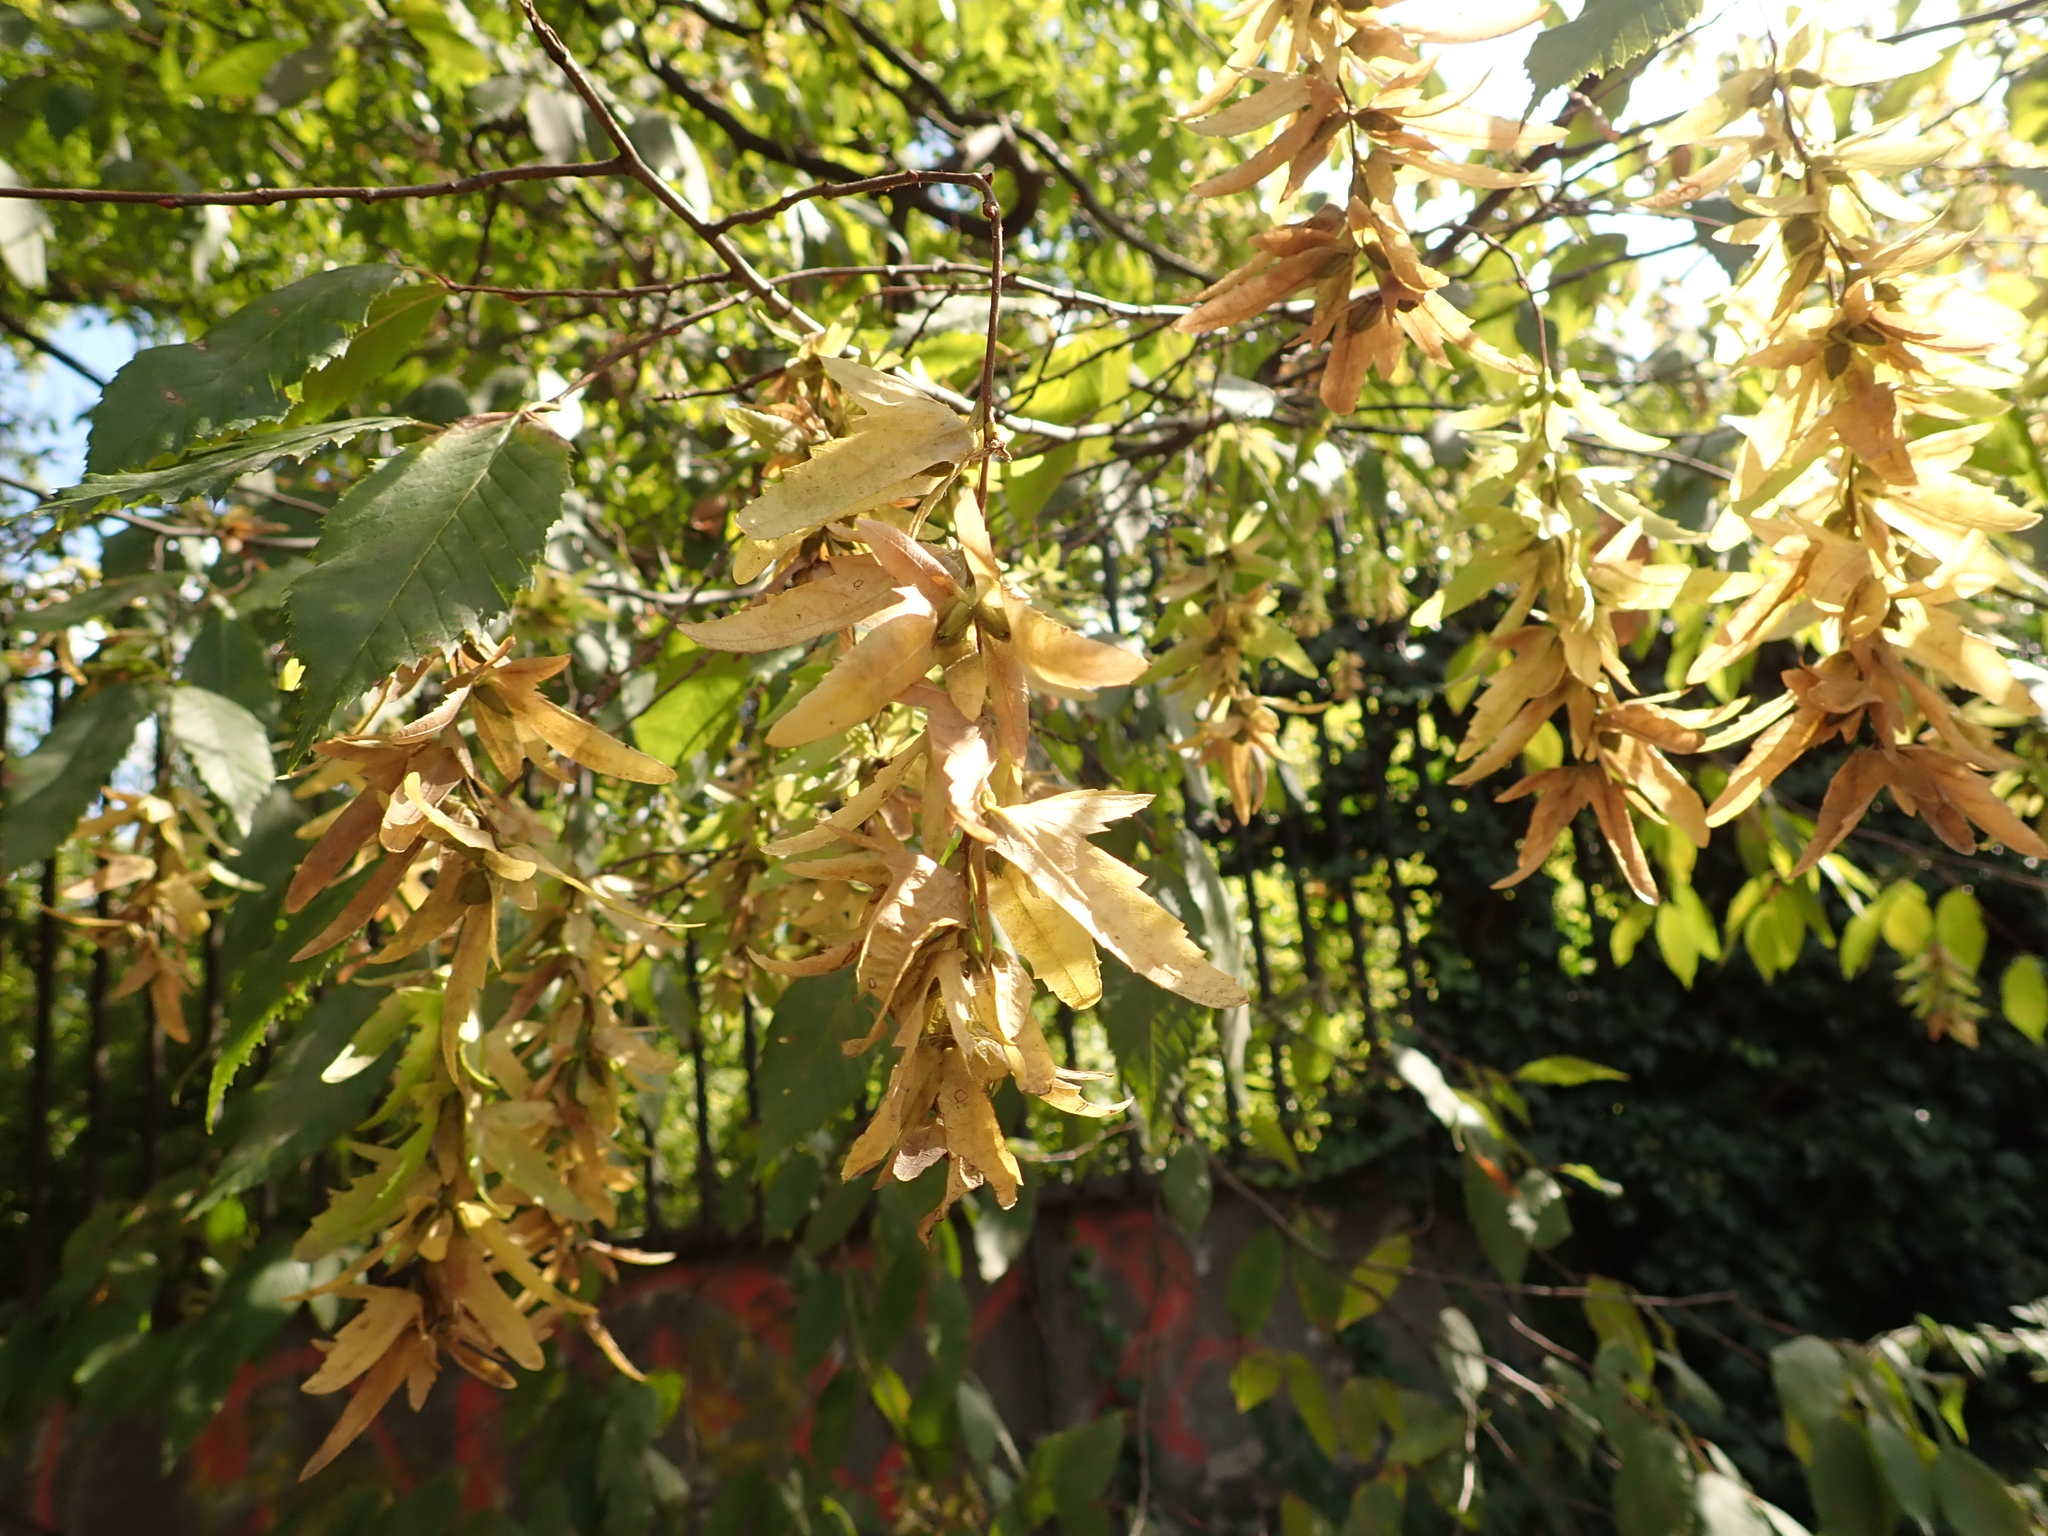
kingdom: Plantae
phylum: Tracheophyta
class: Magnoliopsida
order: Fagales
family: Betulaceae
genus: Carpinus
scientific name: Carpinus betulus
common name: Hornbeam
